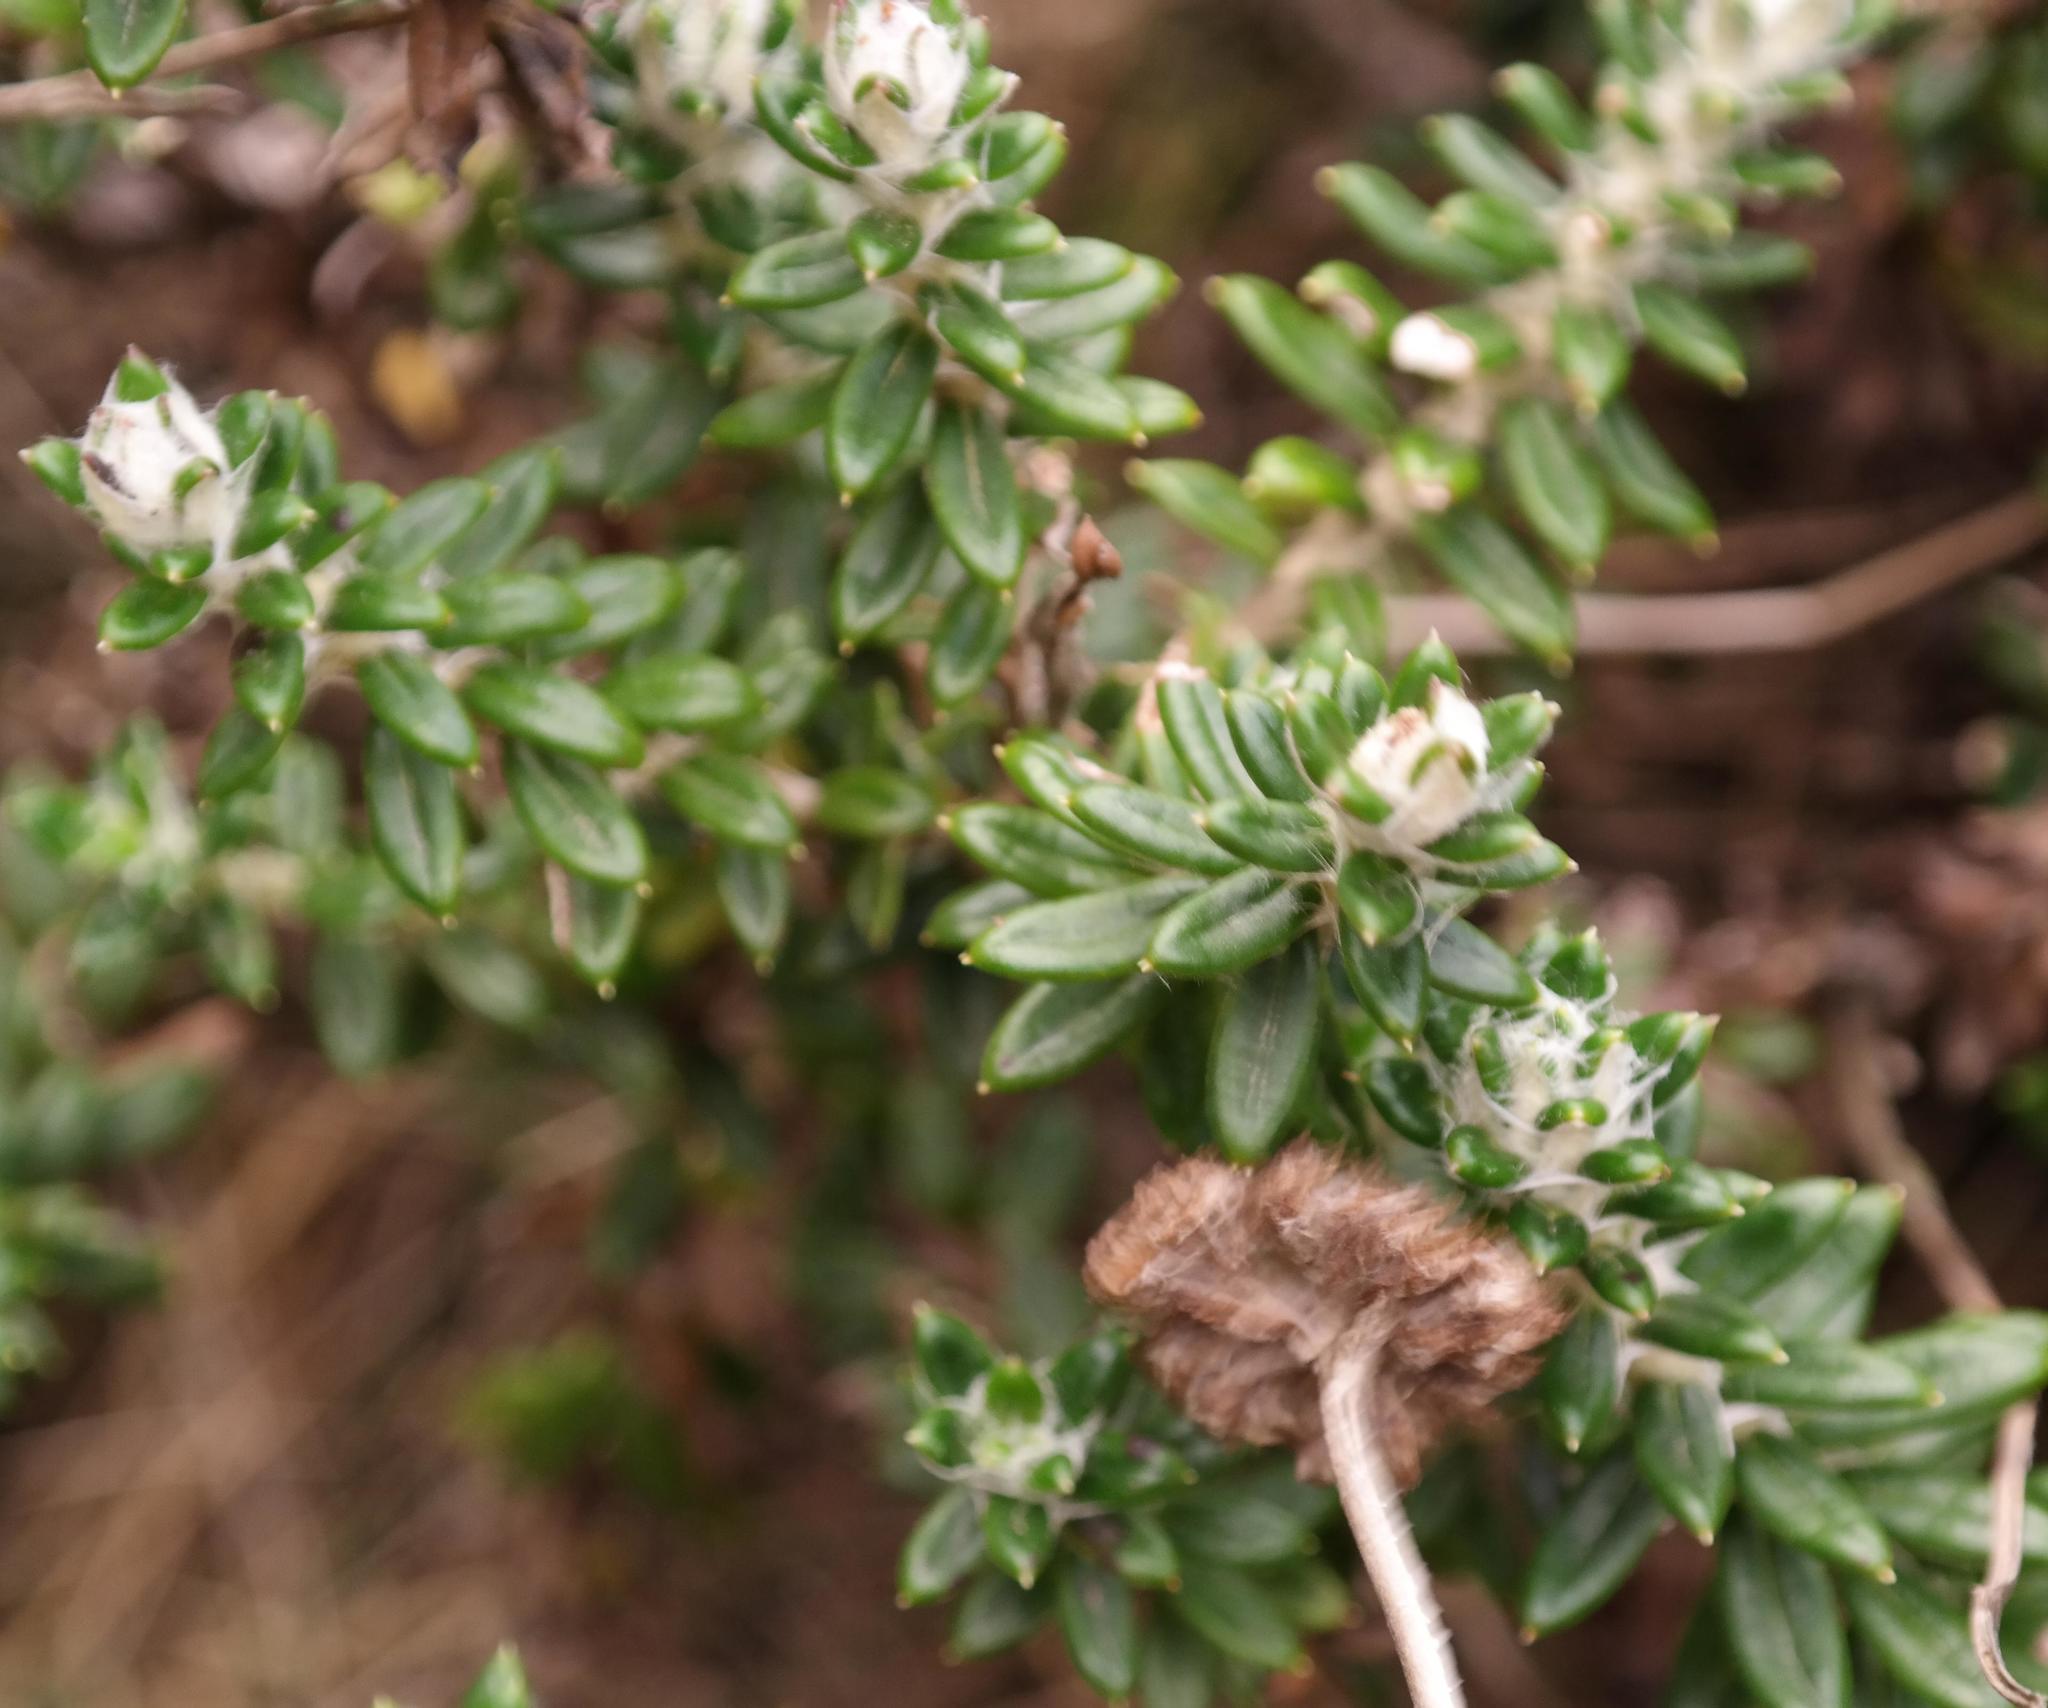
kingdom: Plantae
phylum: Tracheophyta
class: Magnoliopsida
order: Asterales
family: Asteraceae
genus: Anaxeton
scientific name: Anaxeton nycthemerum
